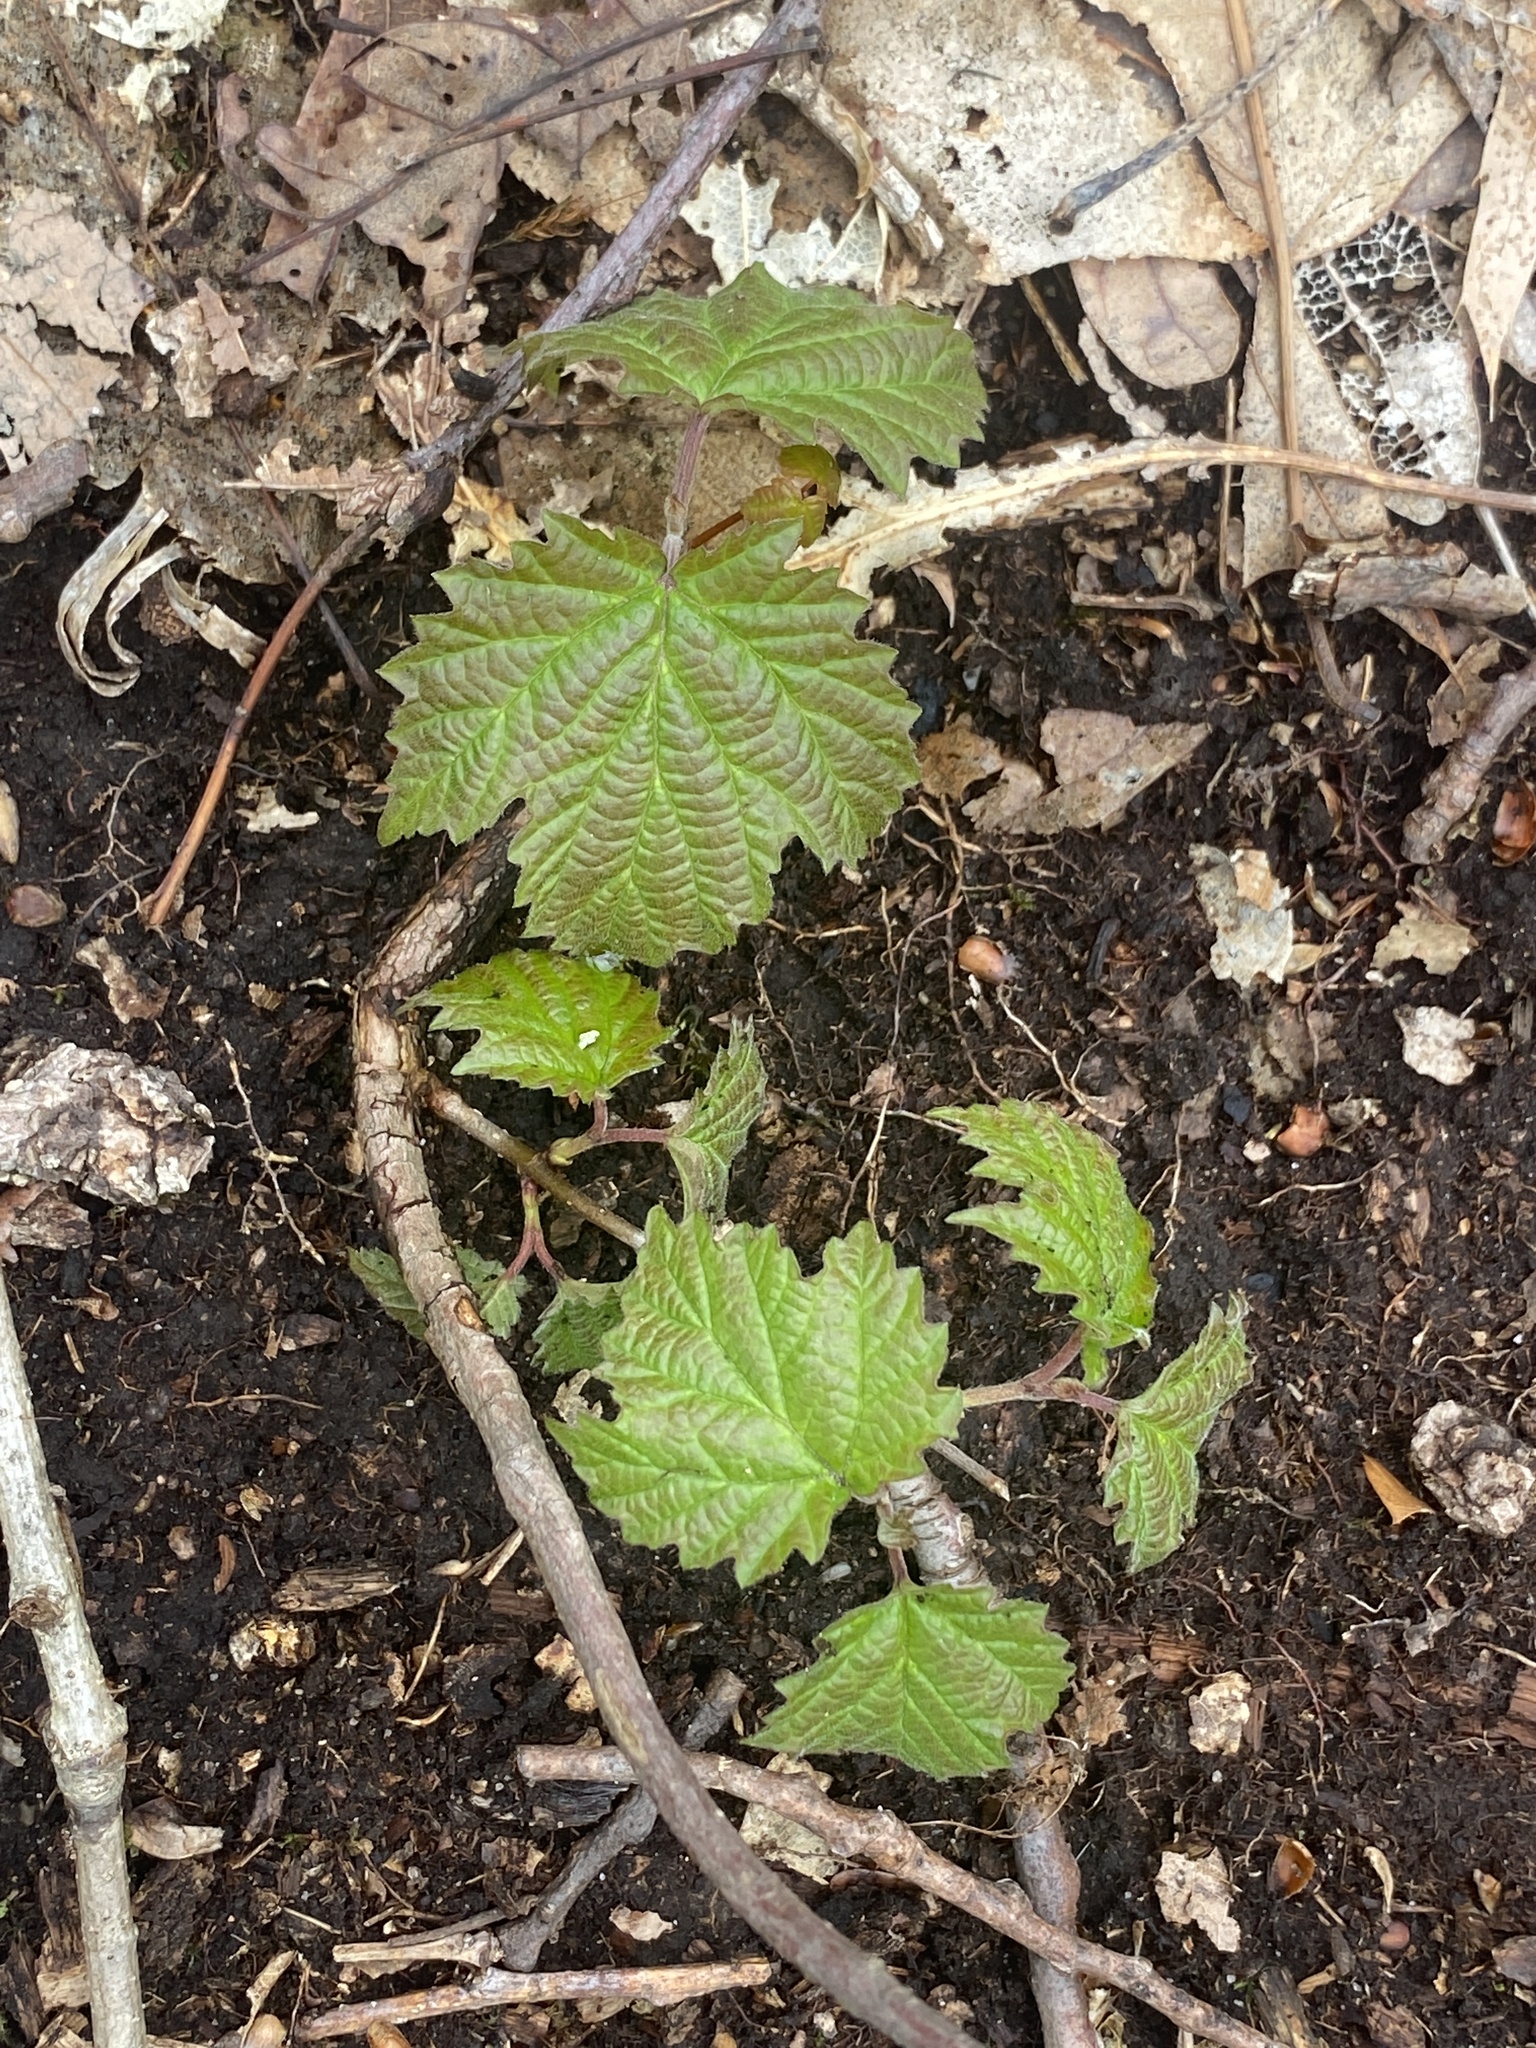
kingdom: Plantae
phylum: Tracheophyta
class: Magnoliopsida
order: Dipsacales
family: Viburnaceae
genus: Viburnum
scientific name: Viburnum acerifolium
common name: Dockmackie
